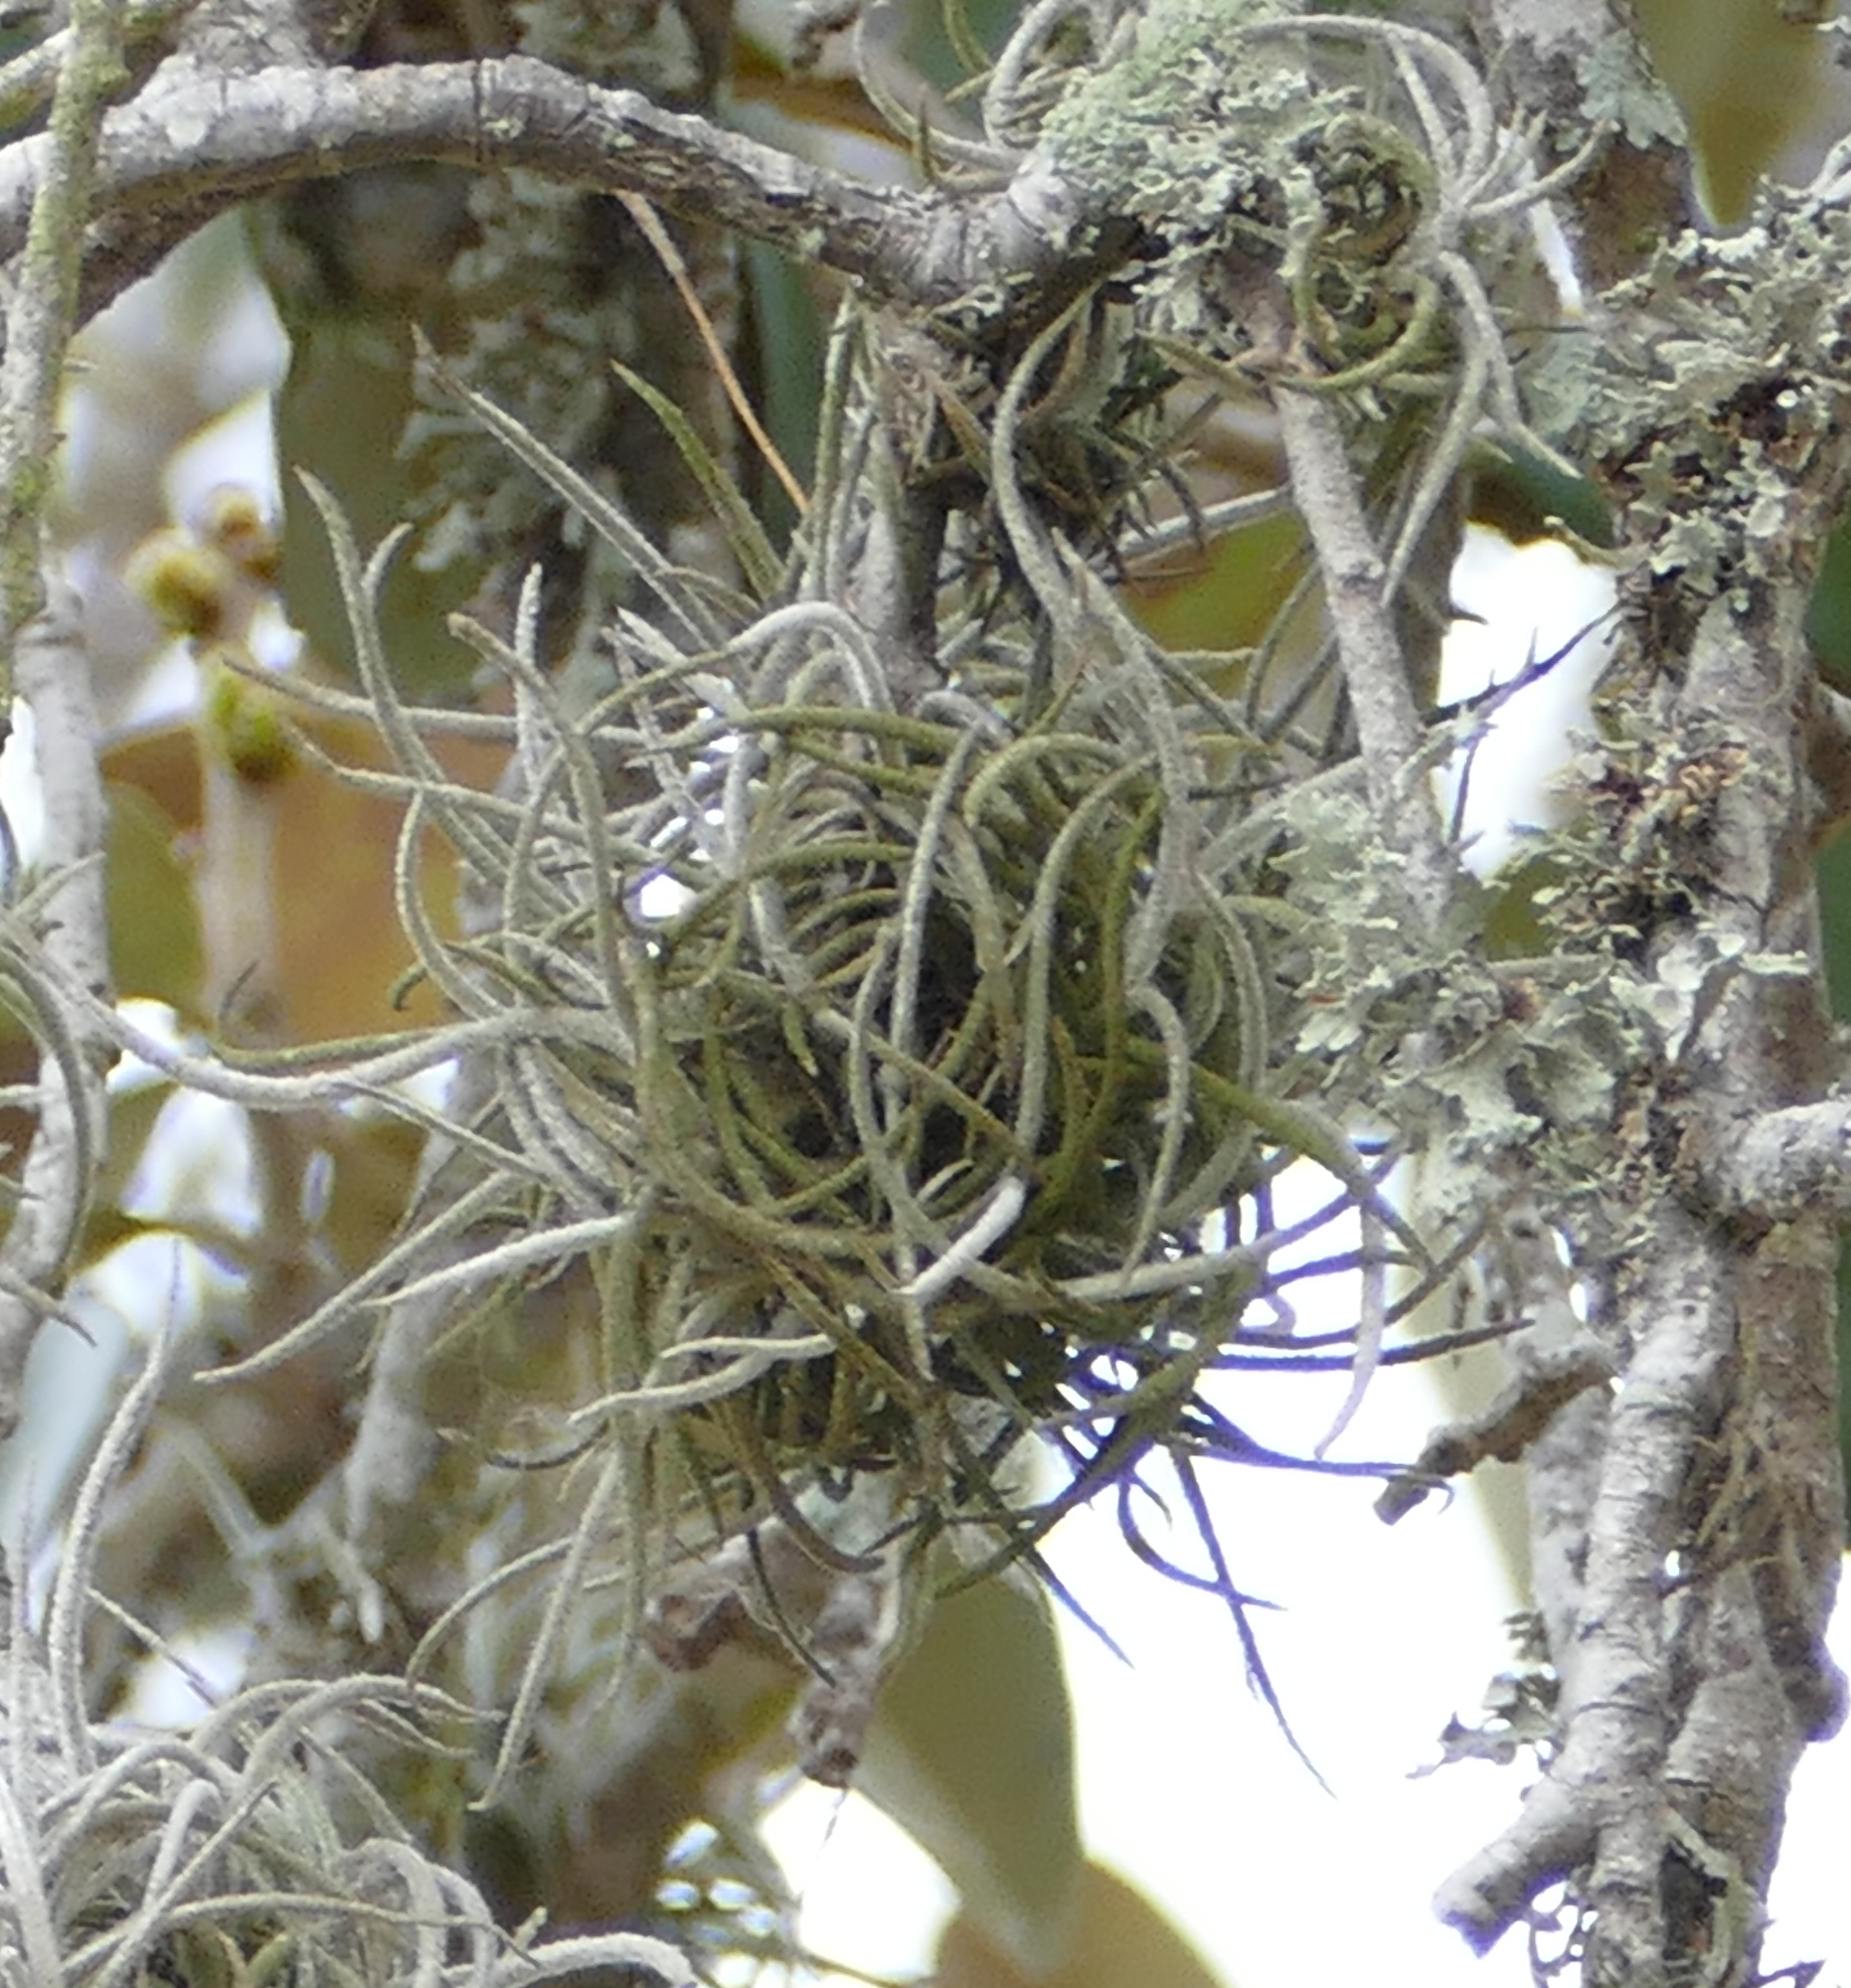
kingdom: Plantae
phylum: Tracheophyta
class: Liliopsida
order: Poales
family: Bromeliaceae
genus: Tillandsia
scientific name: Tillandsia recurvata
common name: Small ballmoss
